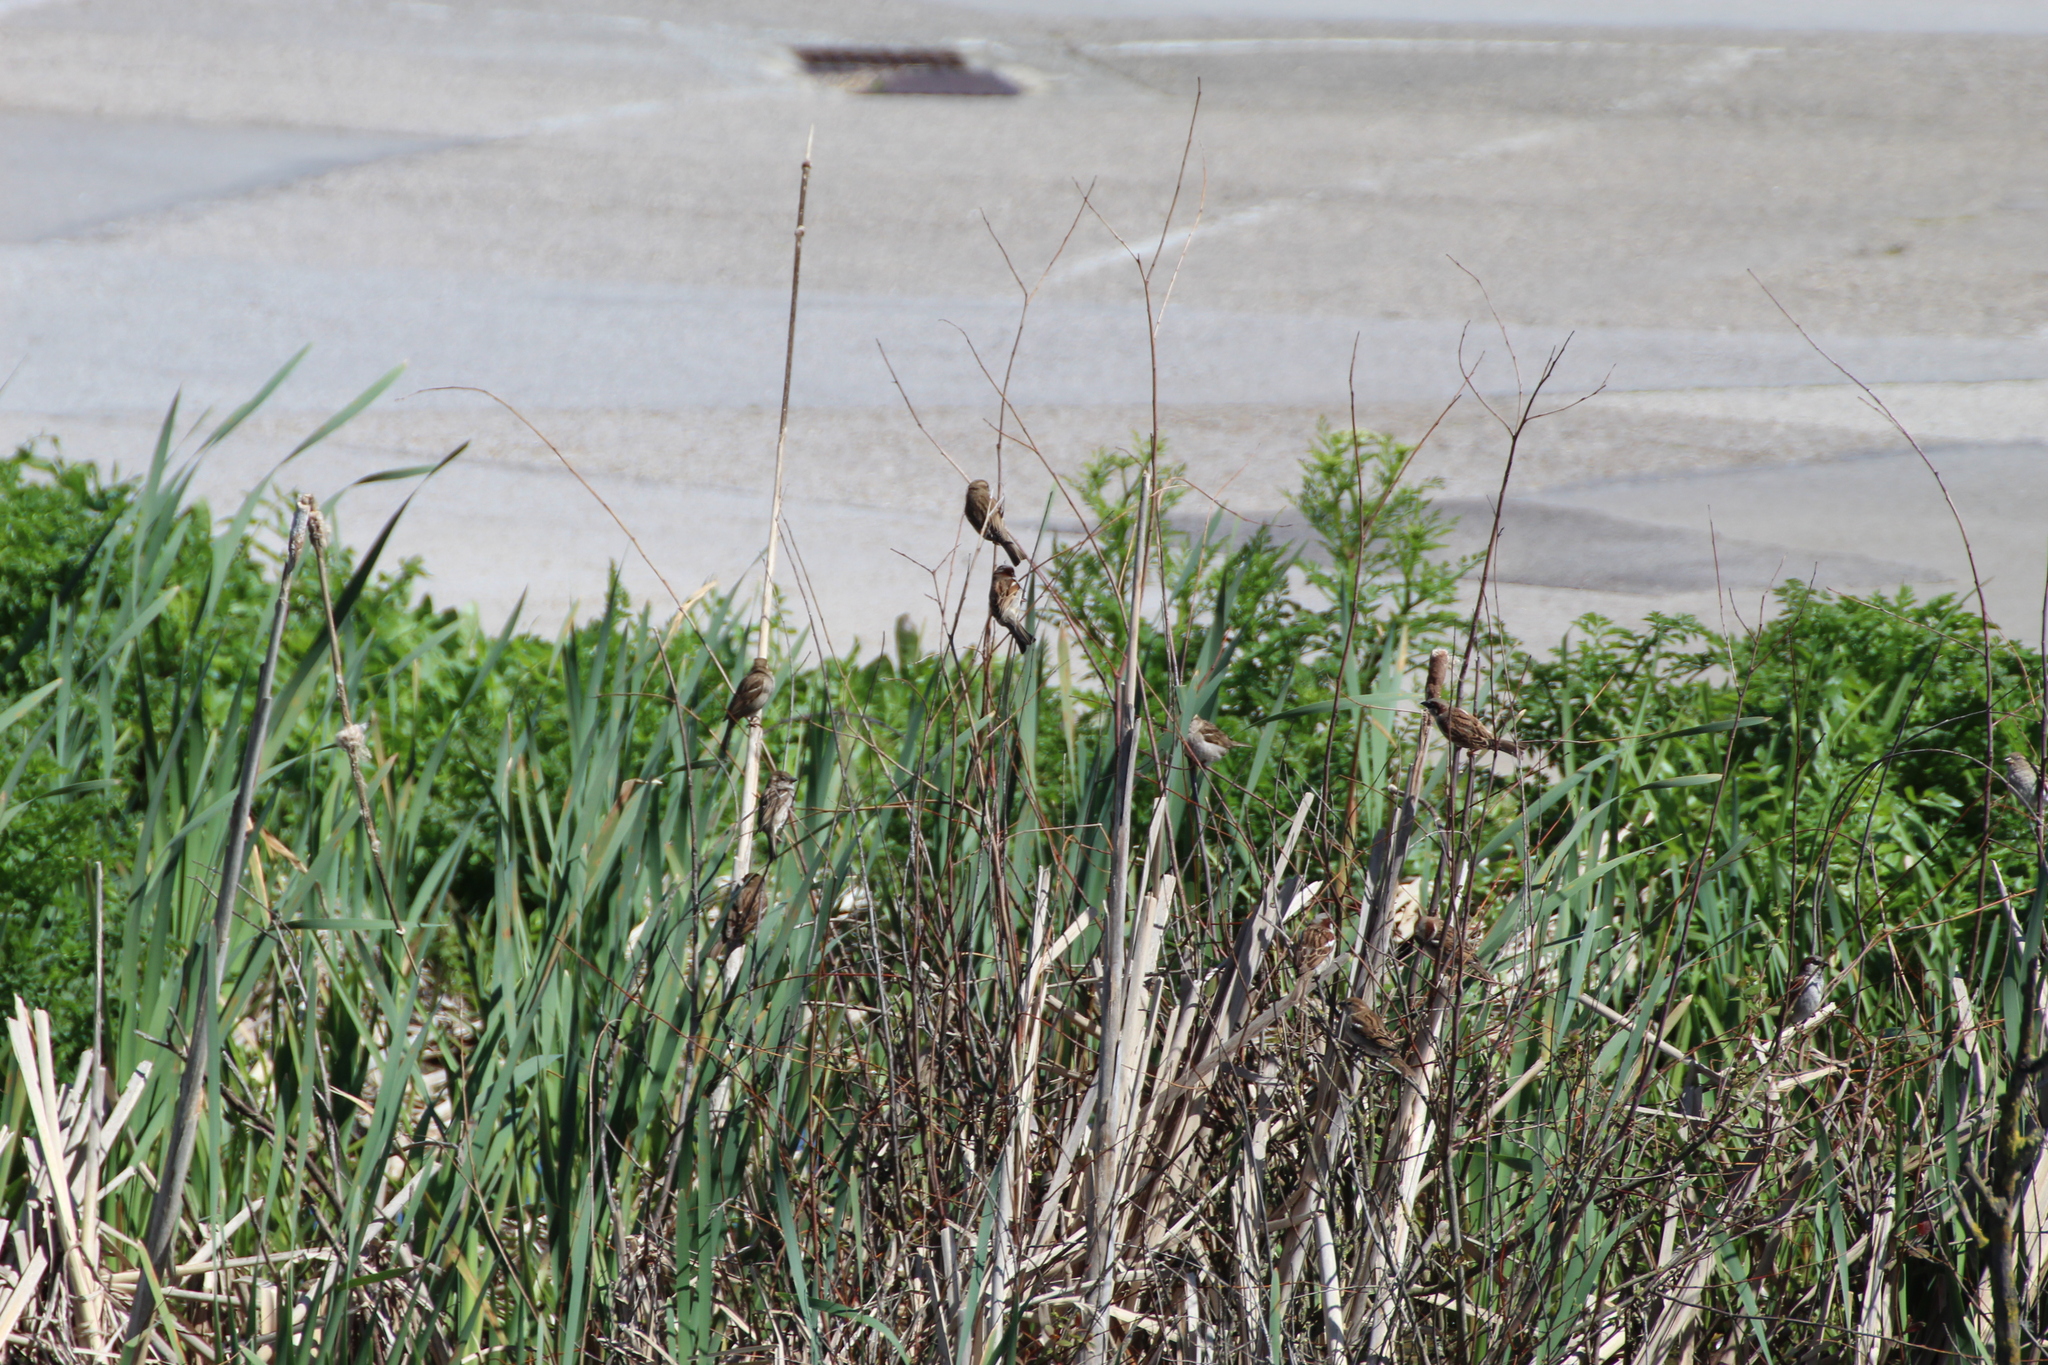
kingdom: Animalia
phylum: Chordata
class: Aves
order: Passeriformes
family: Passeridae
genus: Passer
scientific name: Passer domesticus
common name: House sparrow
